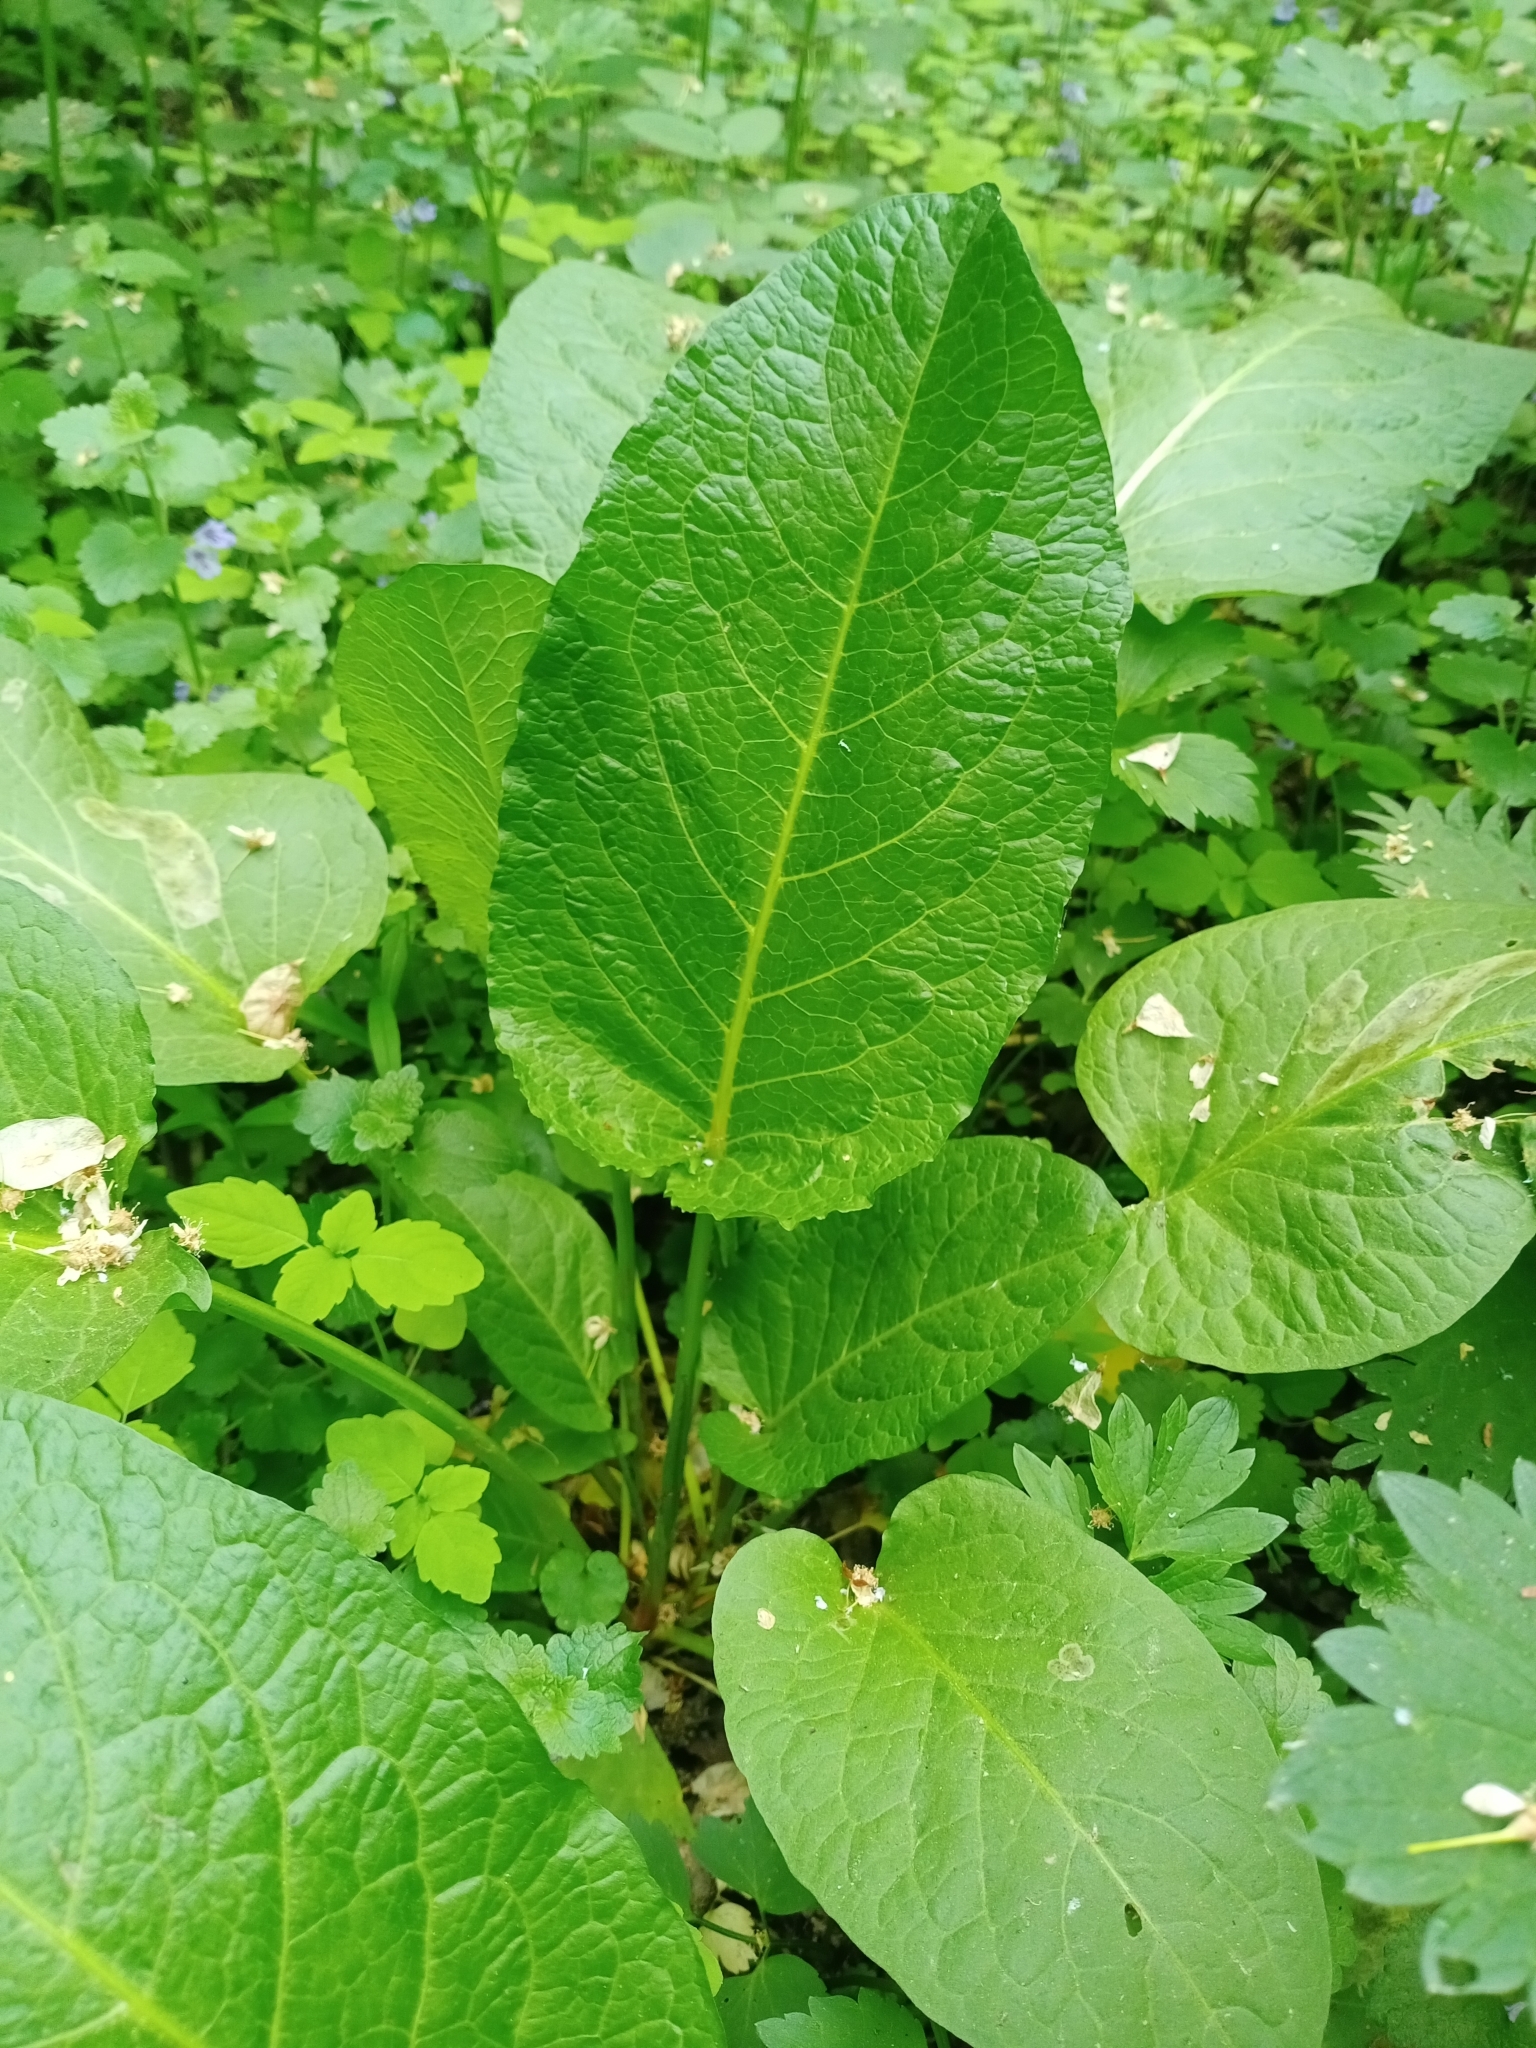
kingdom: Plantae
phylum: Tracheophyta
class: Magnoliopsida
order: Caryophyllales
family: Polygonaceae
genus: Rumex
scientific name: Rumex obtusifolius
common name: Bitter dock
